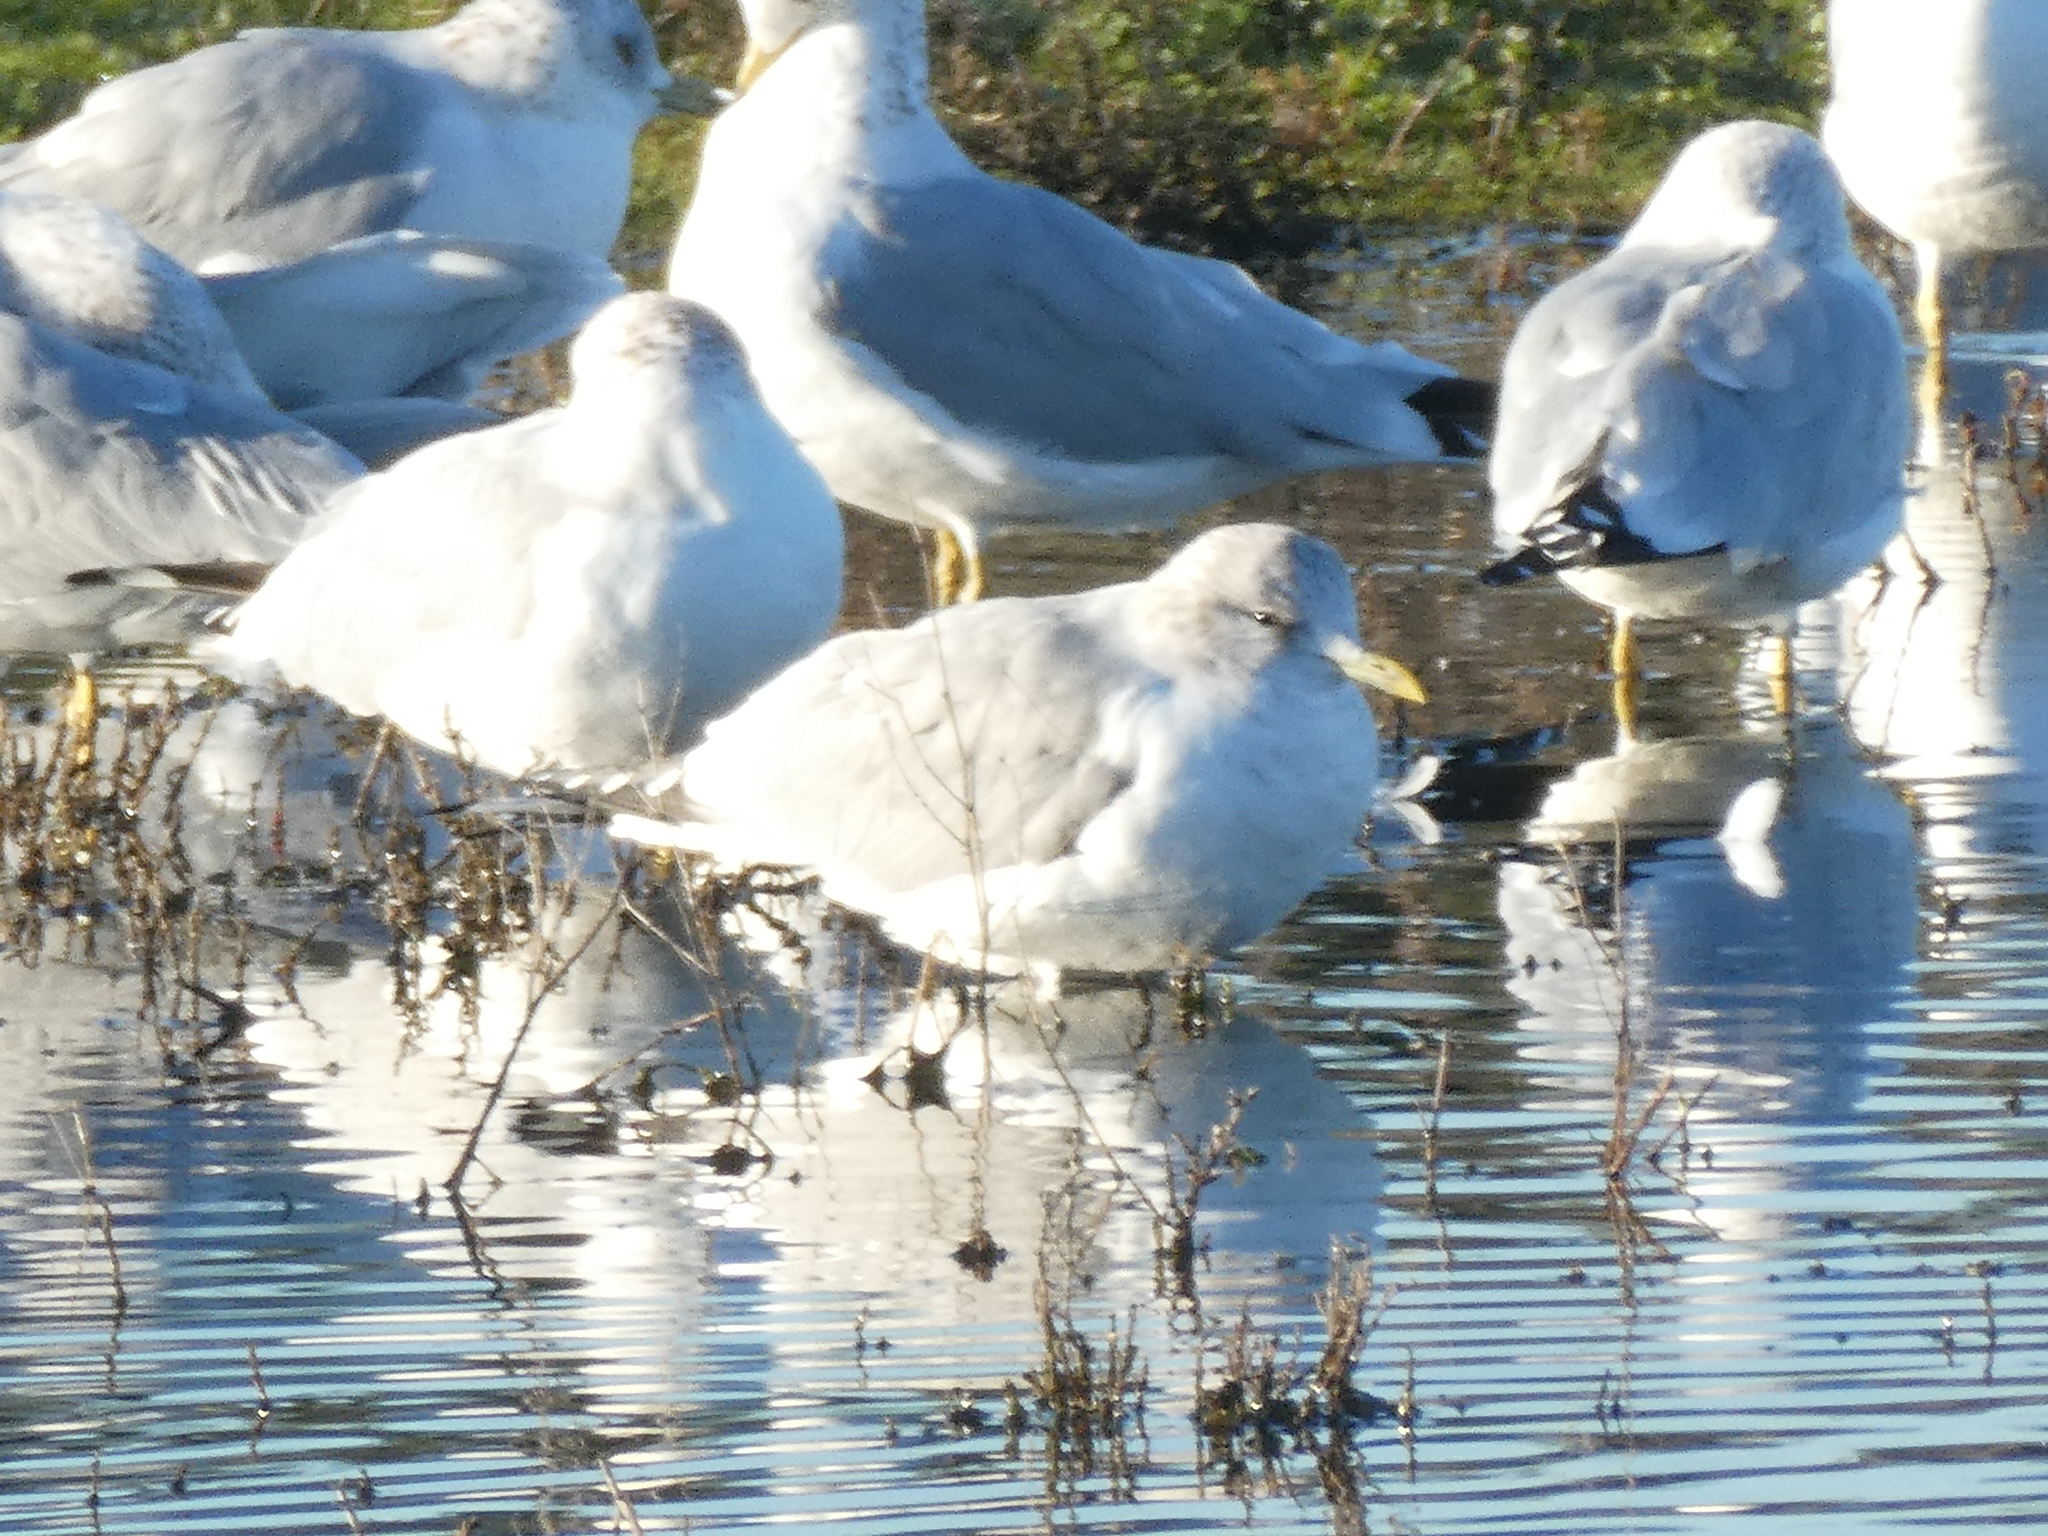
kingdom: Animalia
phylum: Chordata
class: Aves
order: Charadriiformes
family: Laridae
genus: Larus
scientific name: Larus brachyrhynchus
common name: Short-billed gull
